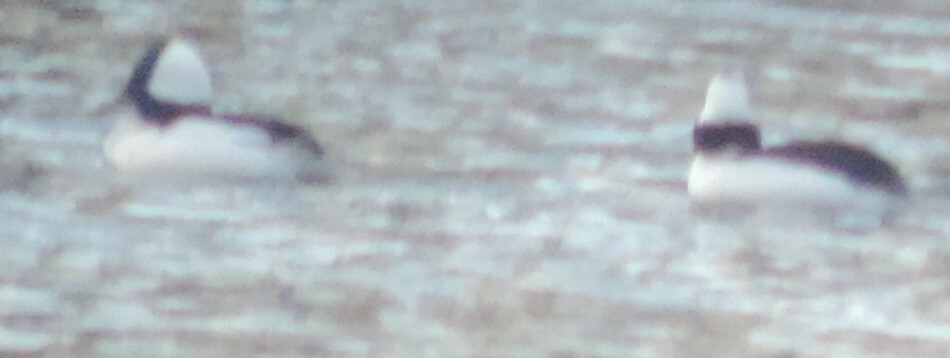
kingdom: Animalia
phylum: Chordata
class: Aves
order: Anseriformes
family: Anatidae
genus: Bucephala
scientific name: Bucephala albeola
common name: Bufflehead
